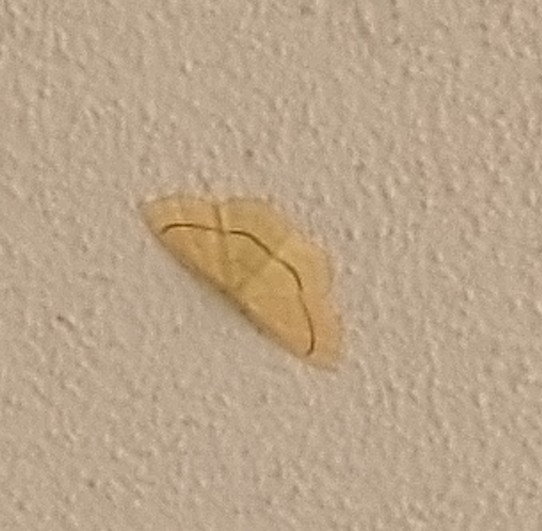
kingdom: Animalia
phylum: Arthropoda
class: Insecta
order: Lepidoptera
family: Geometridae
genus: Cyclophora
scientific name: Cyclophora linearia
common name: Clay triple-lines
